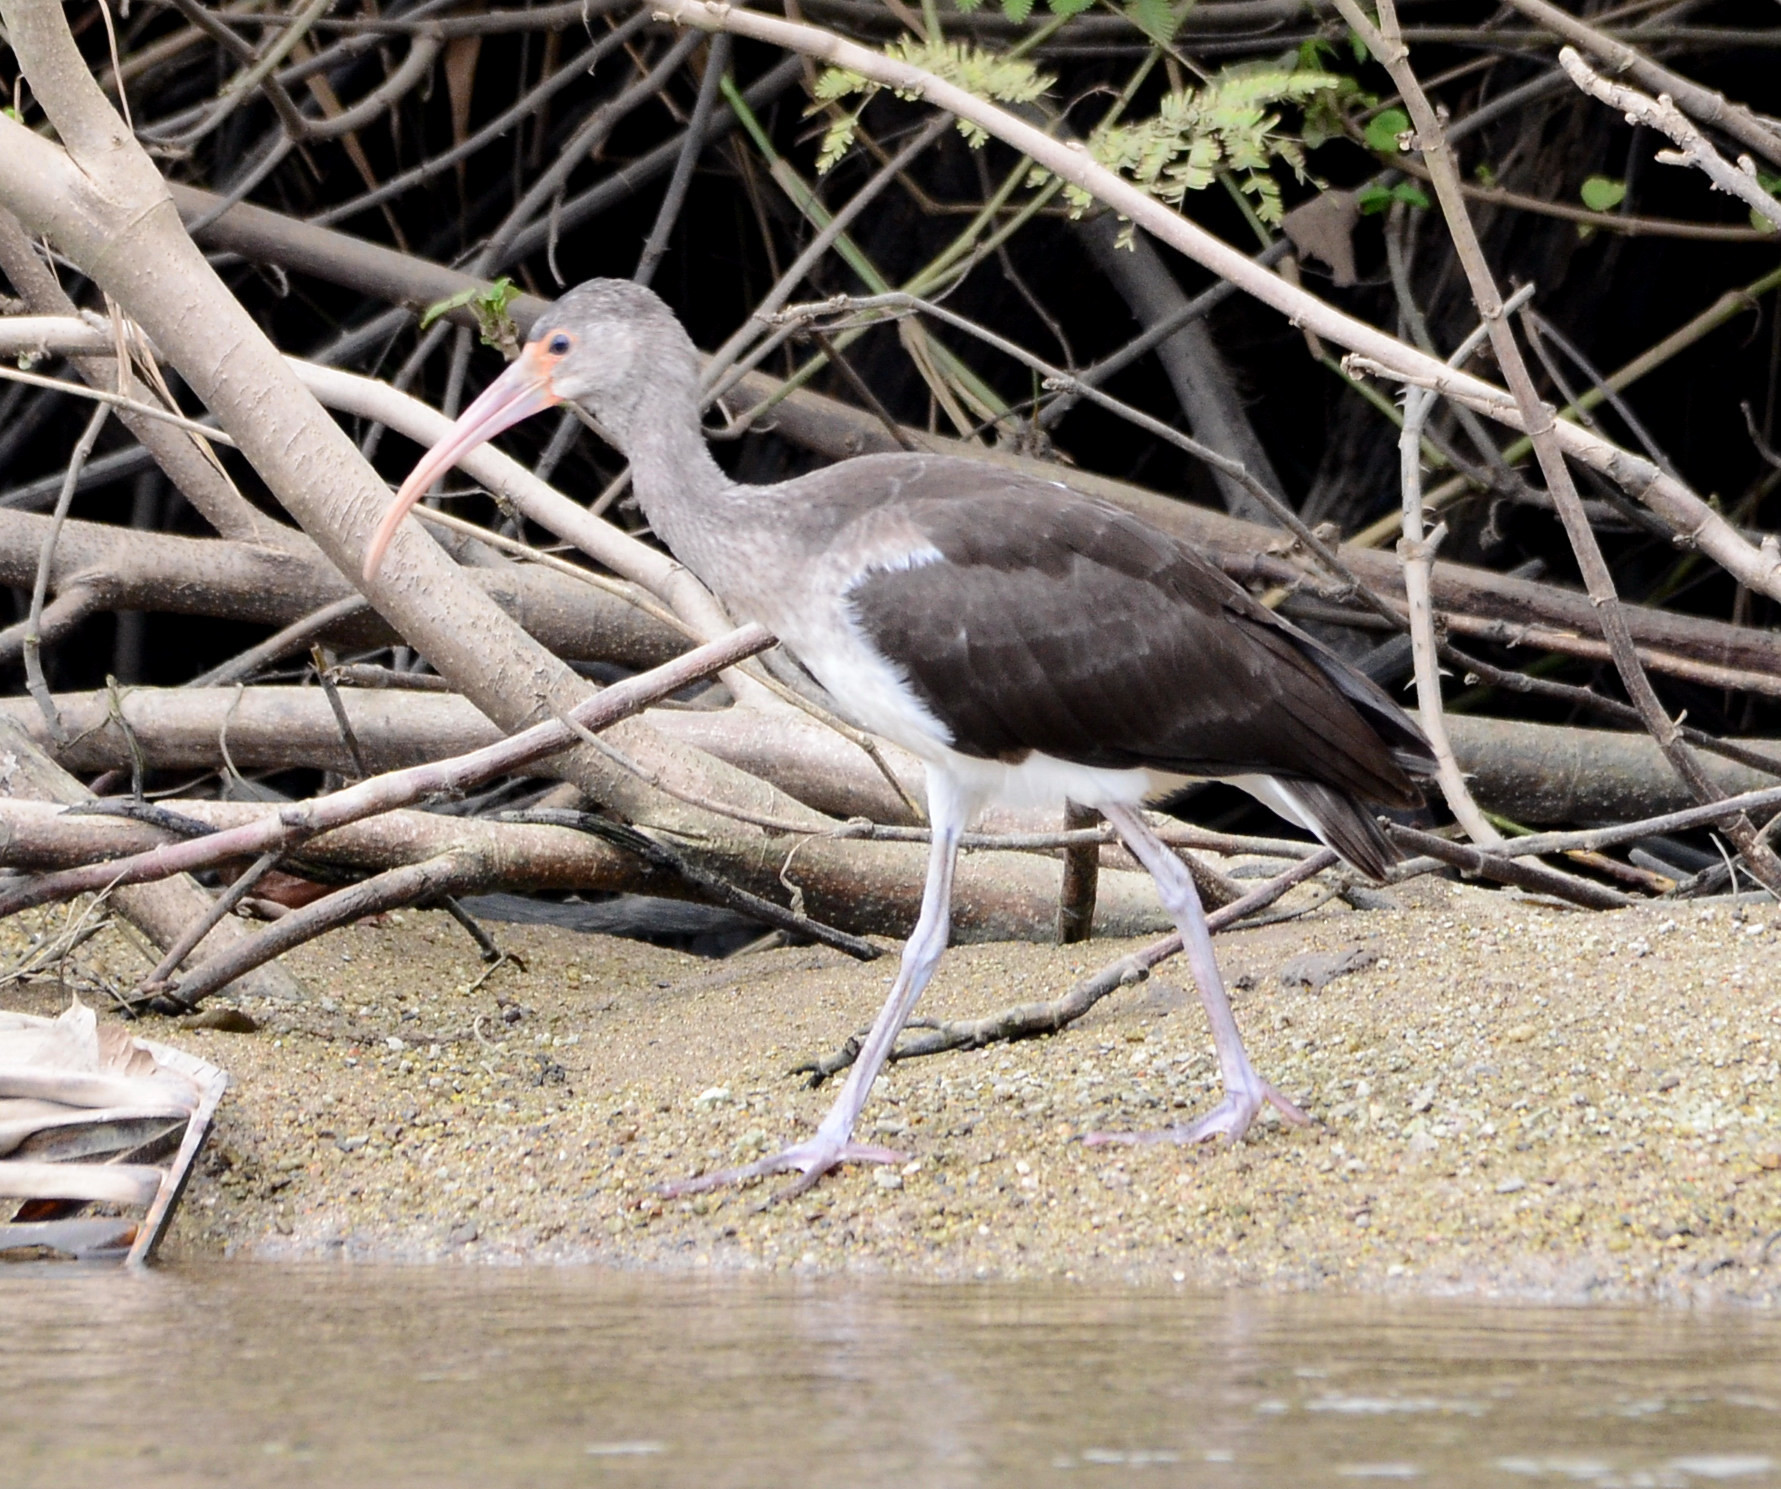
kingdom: Animalia
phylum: Chordata
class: Aves
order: Pelecaniformes
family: Threskiornithidae
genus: Eudocimus
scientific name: Eudocimus albus
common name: White ibis
